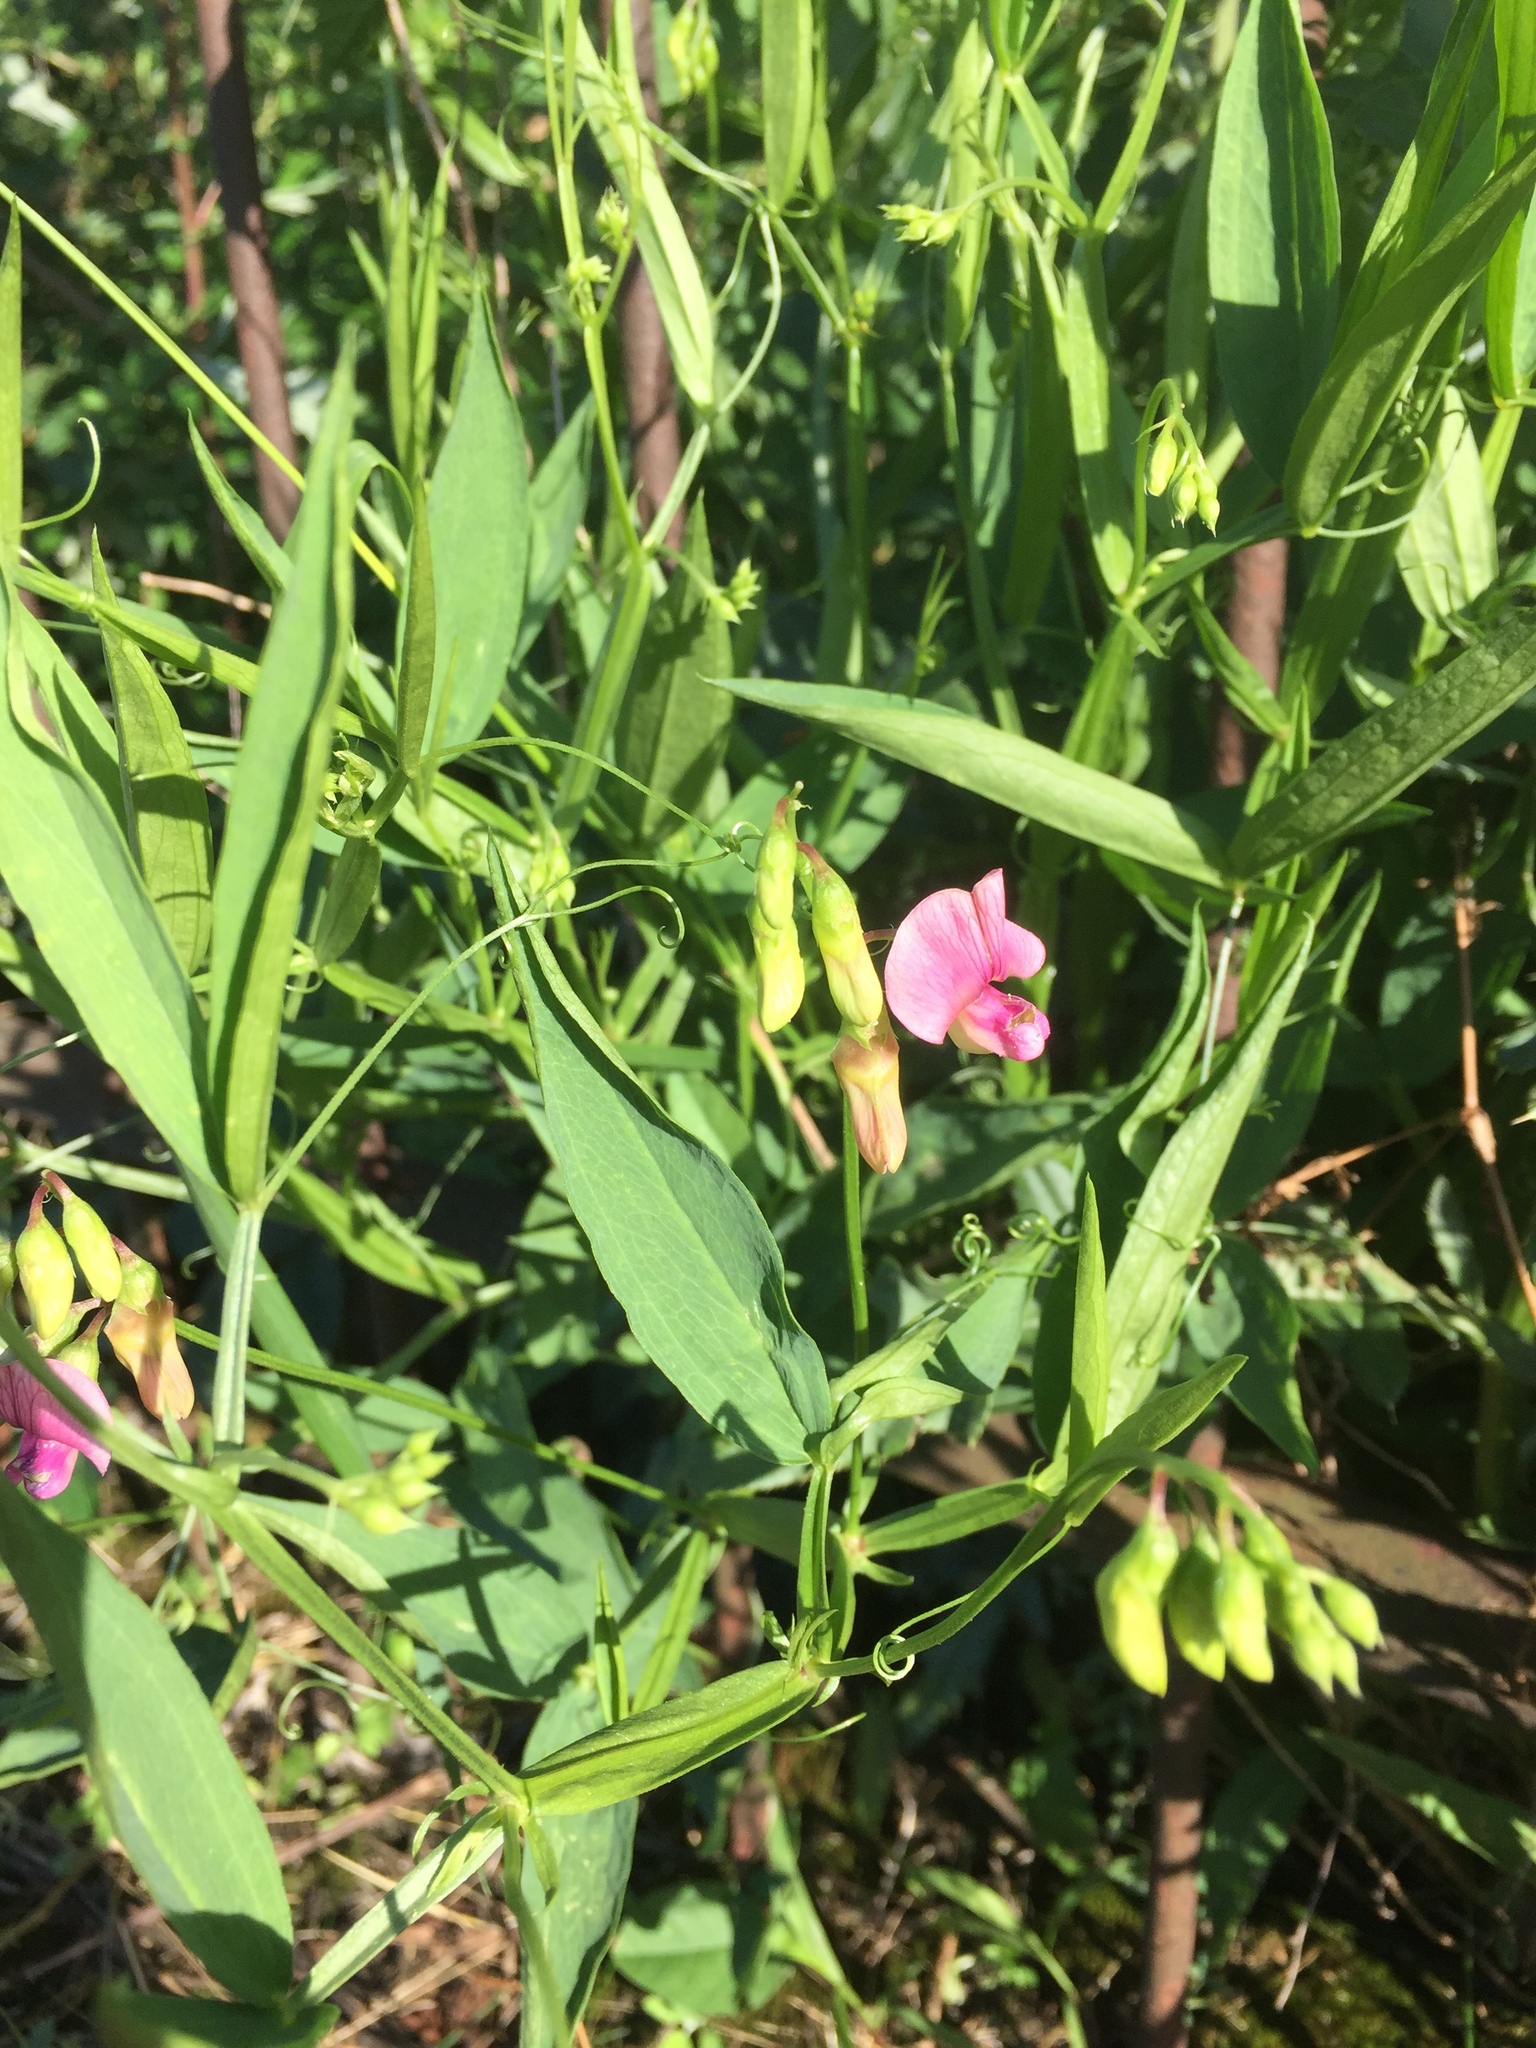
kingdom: Plantae
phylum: Tracheophyta
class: Magnoliopsida
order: Fabales
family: Fabaceae
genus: Lathyrus
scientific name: Lathyrus sylvestris
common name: Flat pea
